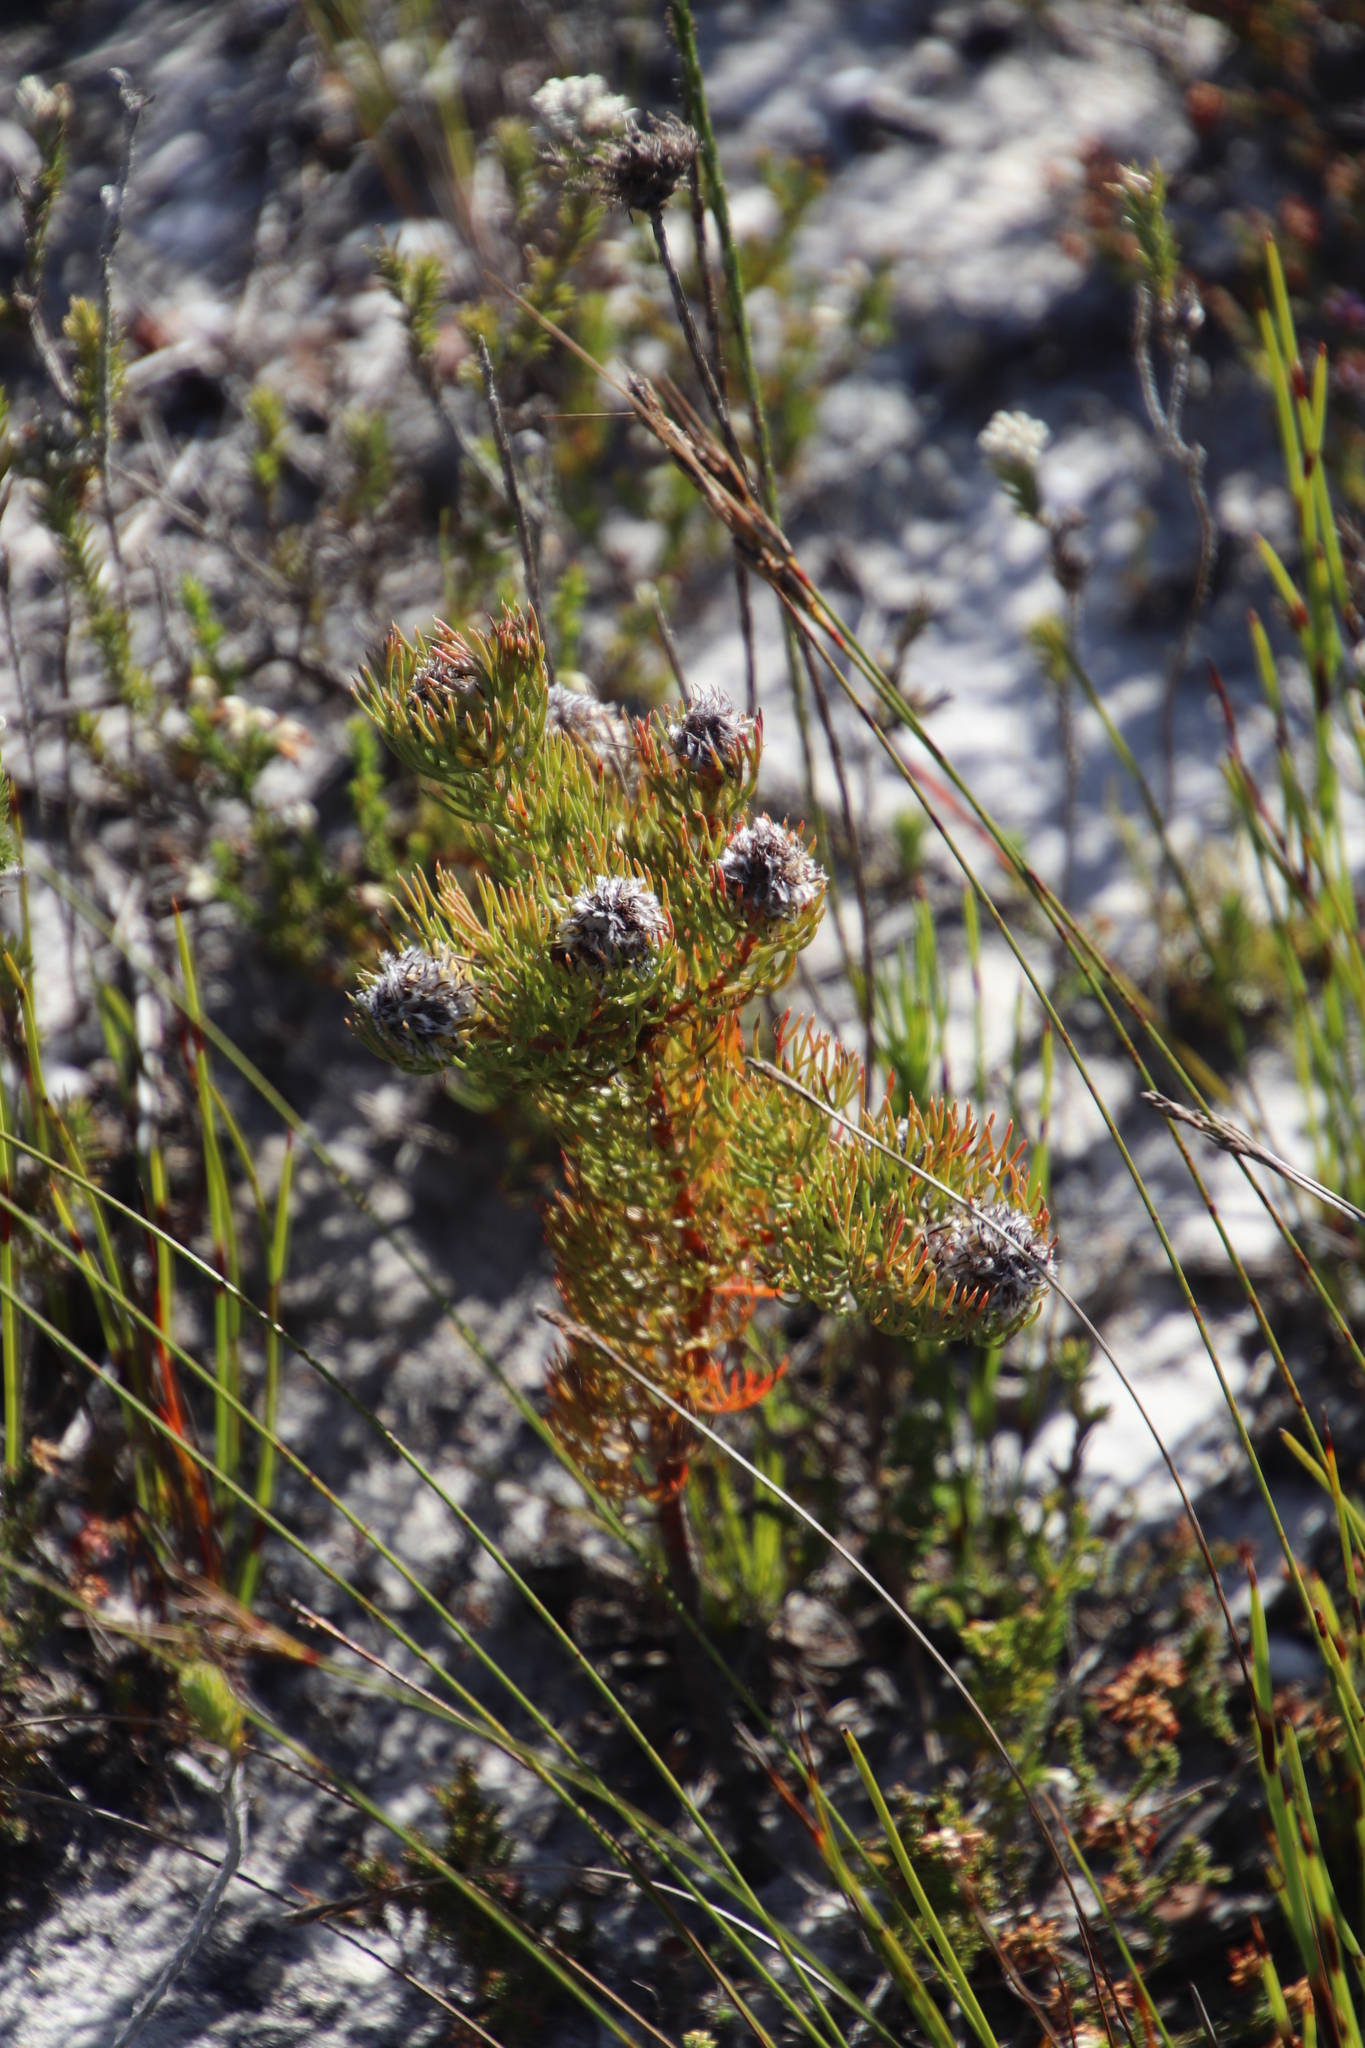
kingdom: Plantae
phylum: Tracheophyta
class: Magnoliopsida
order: Proteales
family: Proteaceae
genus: Serruria
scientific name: Serruria villosa
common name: Golden spiderhead
